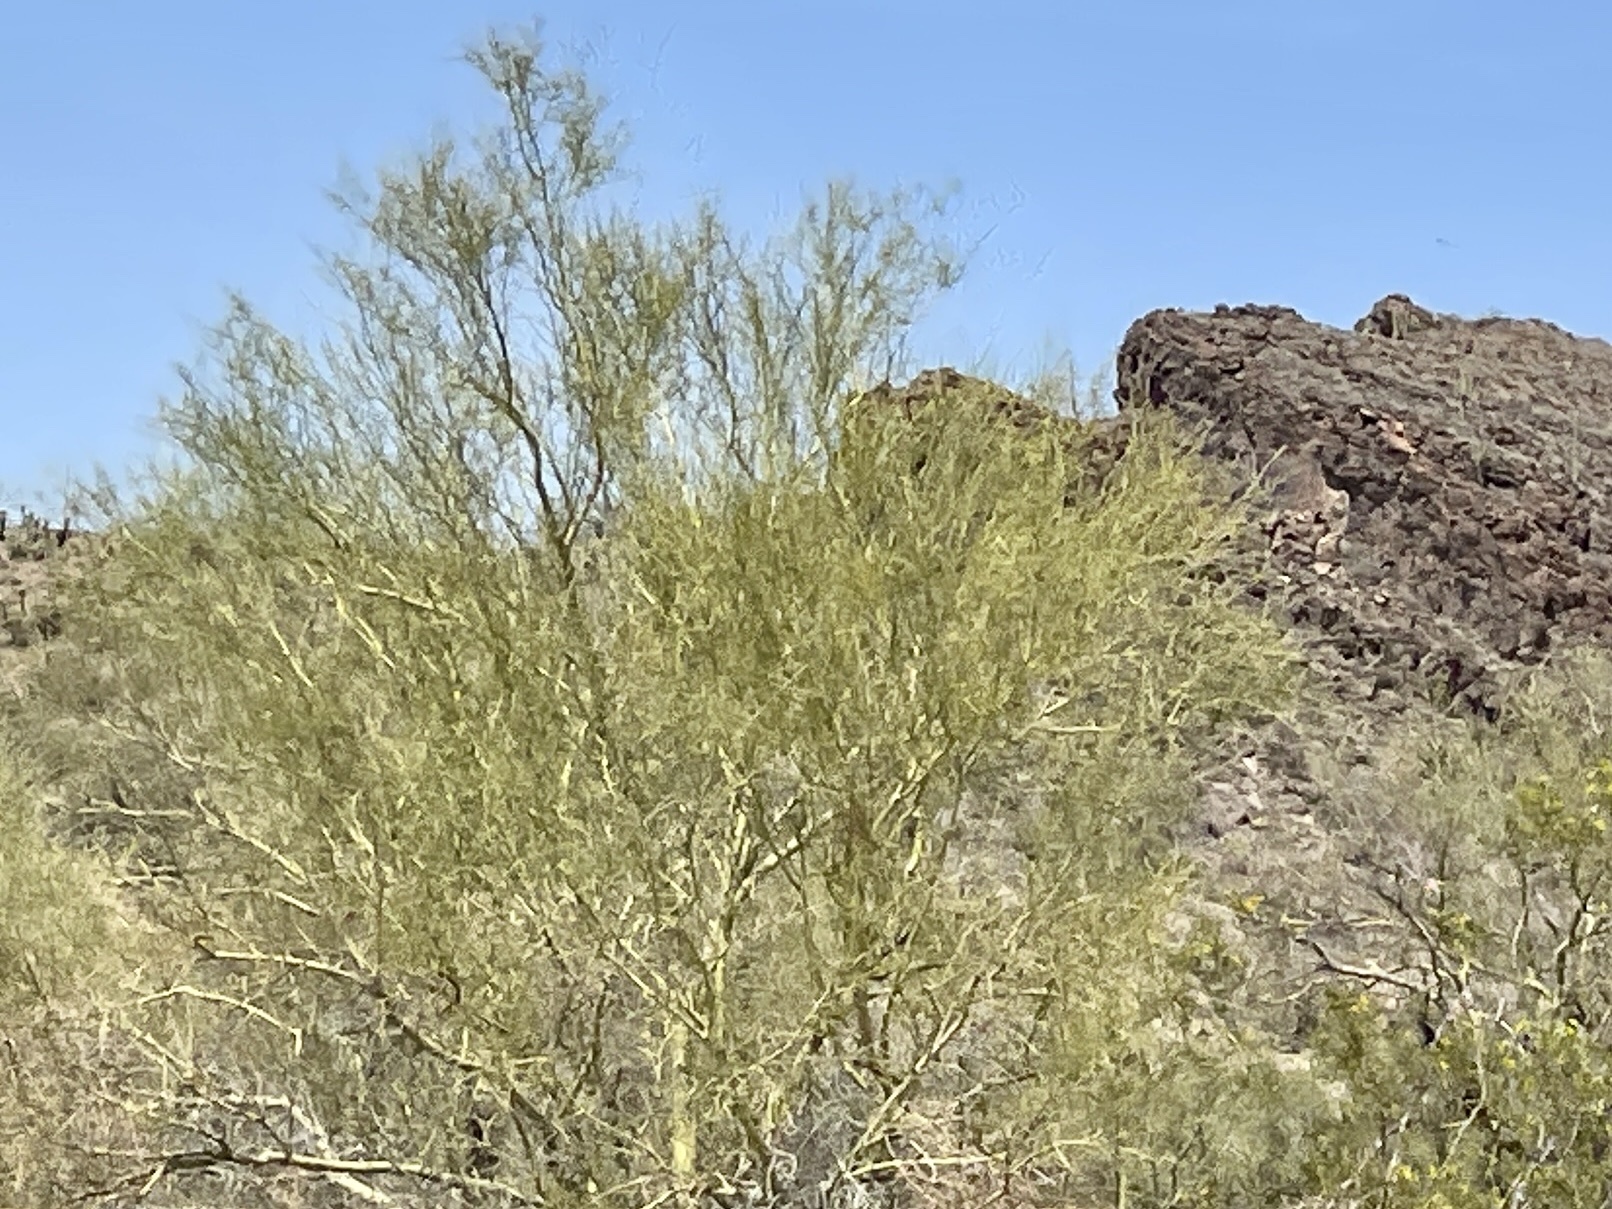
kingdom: Plantae
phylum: Tracheophyta
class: Magnoliopsida
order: Fabales
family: Fabaceae
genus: Parkinsonia
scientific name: Parkinsonia microphylla
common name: Yellow paloverde
